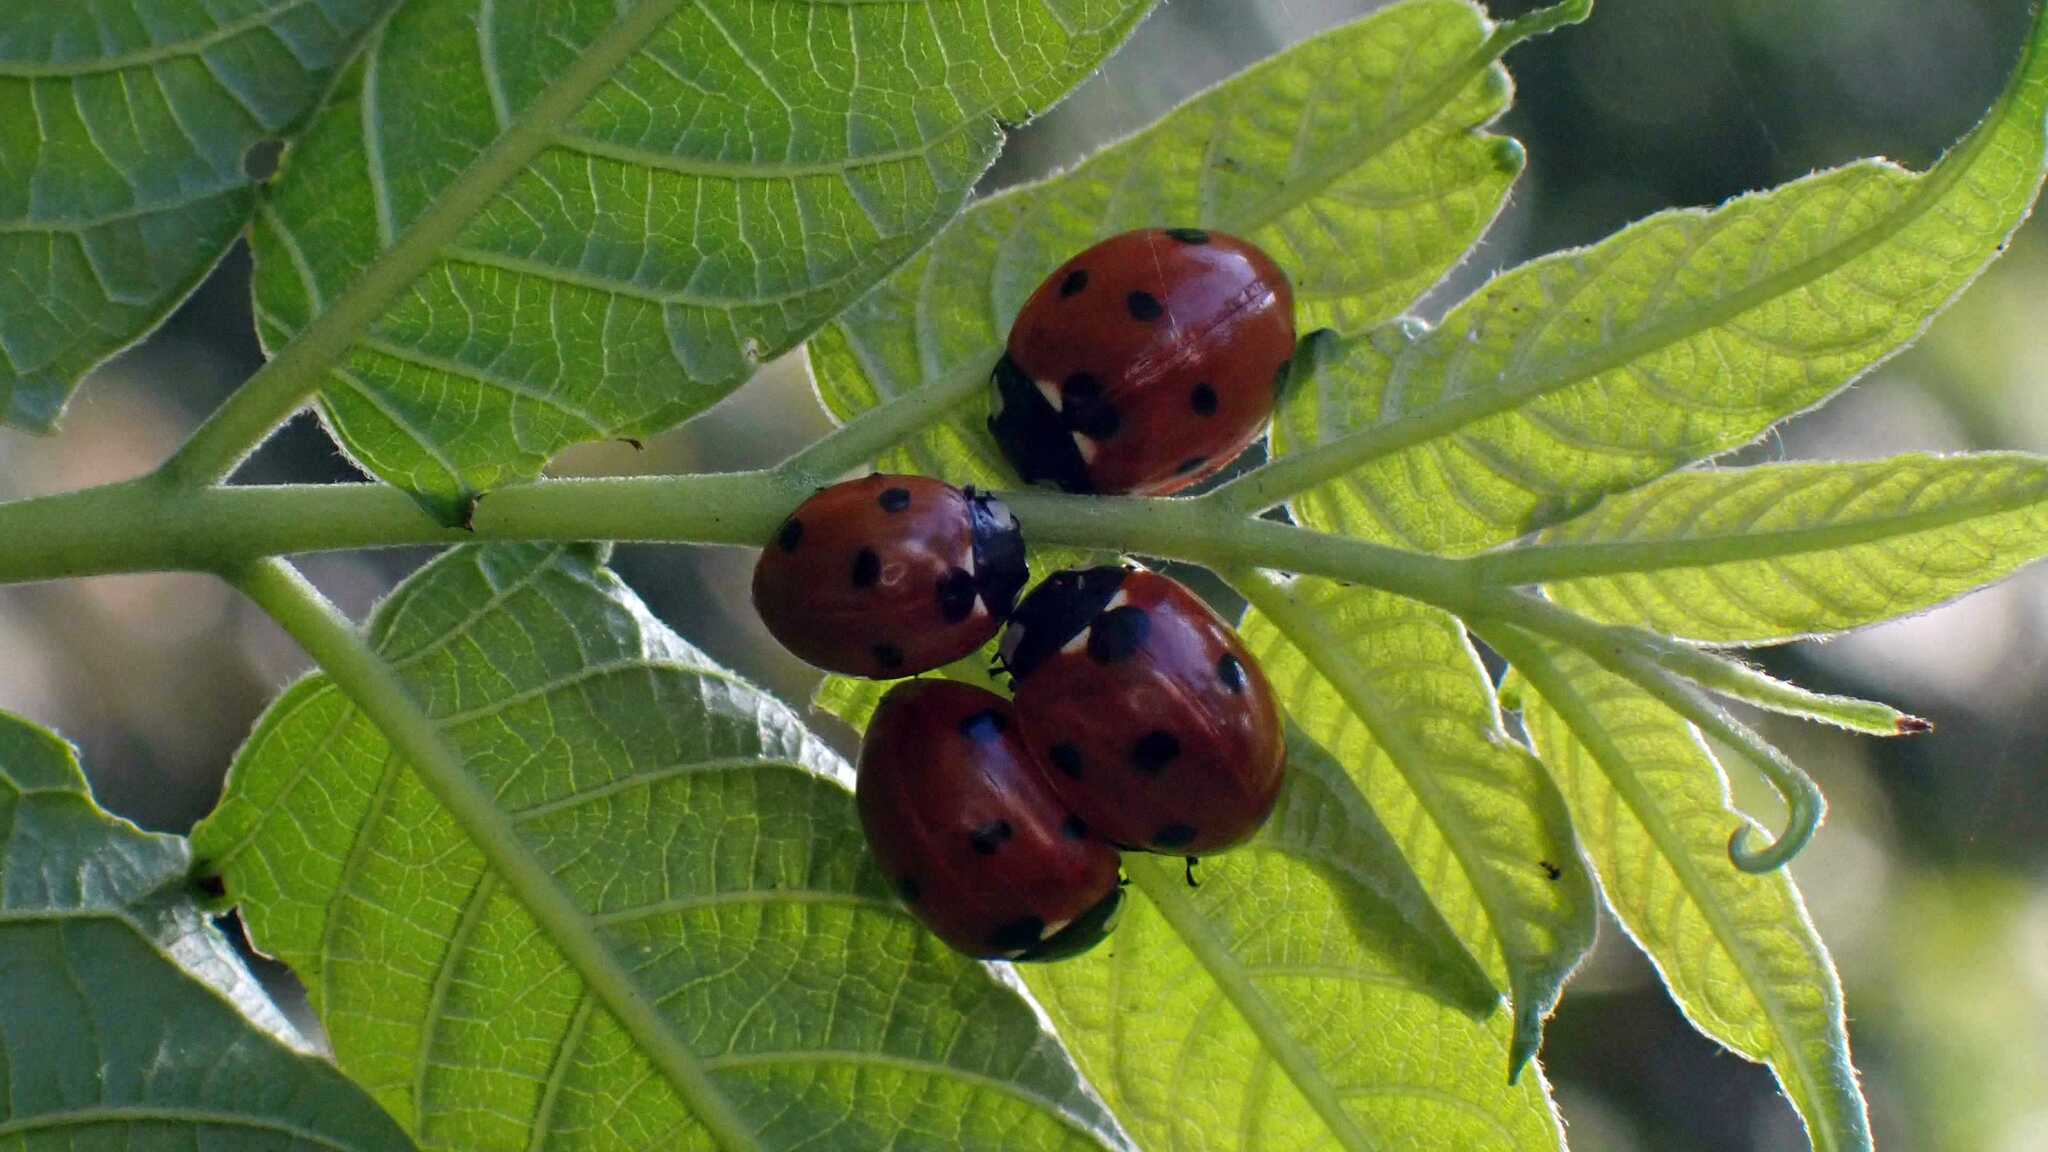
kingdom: Animalia
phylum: Arthropoda
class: Insecta
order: Coleoptera
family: Coccinellidae
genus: Coccinella
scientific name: Coccinella septempunctata
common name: Sevenspotted lady beetle
